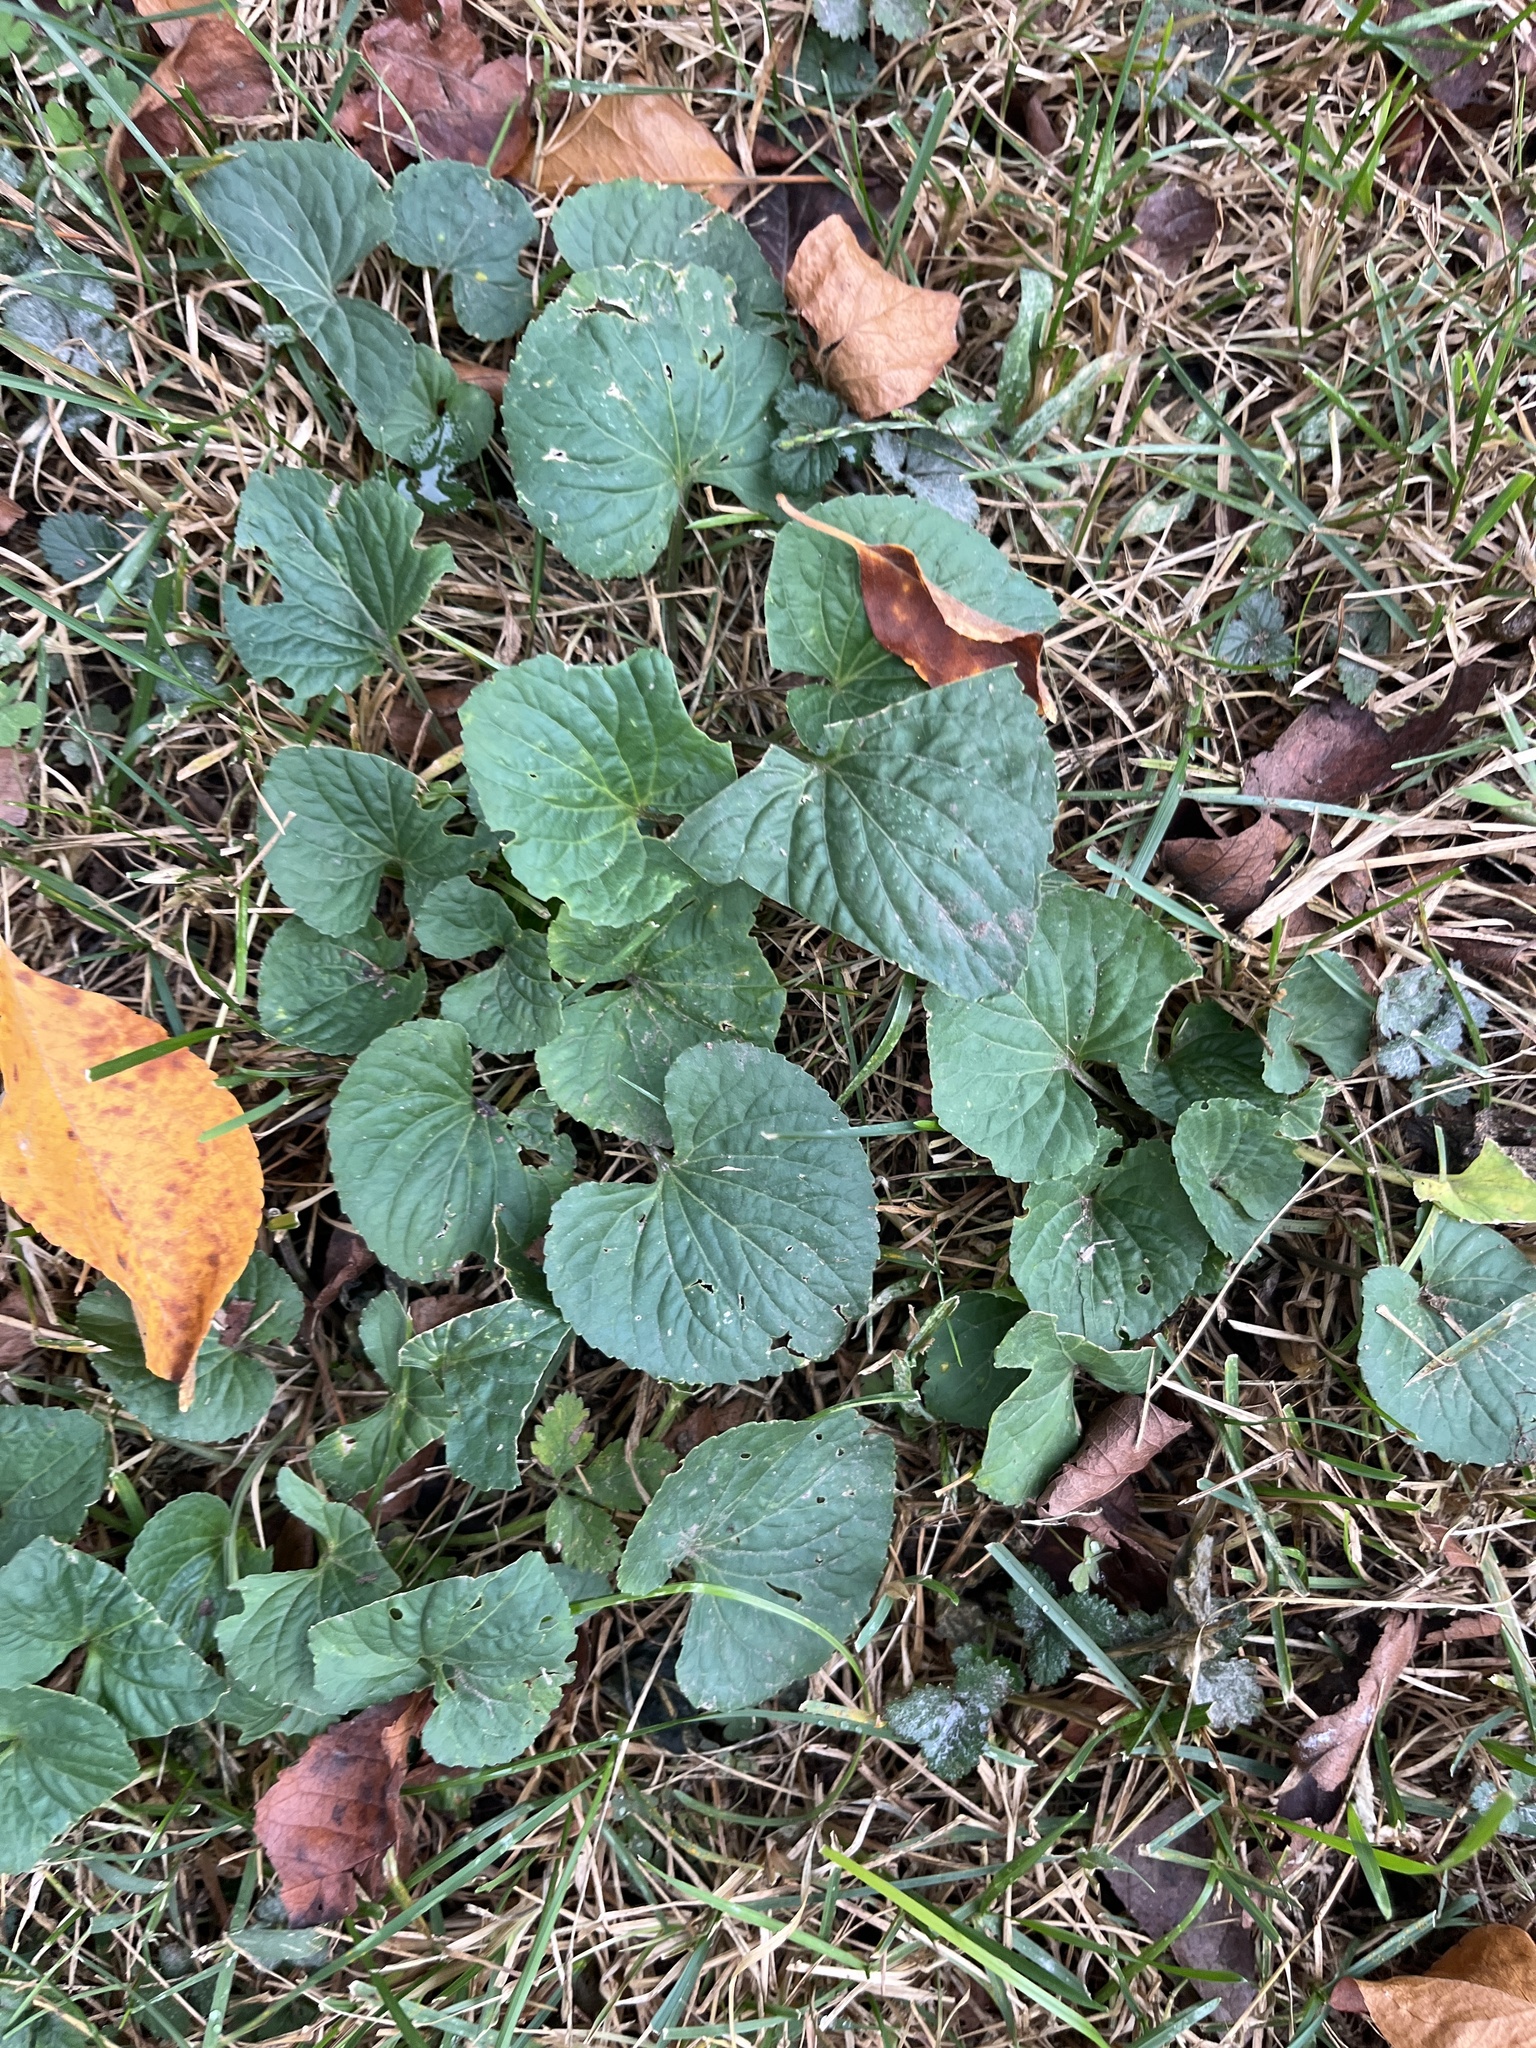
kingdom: Plantae
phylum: Tracheophyta
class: Magnoliopsida
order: Malpighiales
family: Violaceae
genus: Viola
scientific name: Viola sororia
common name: Dooryard violet
